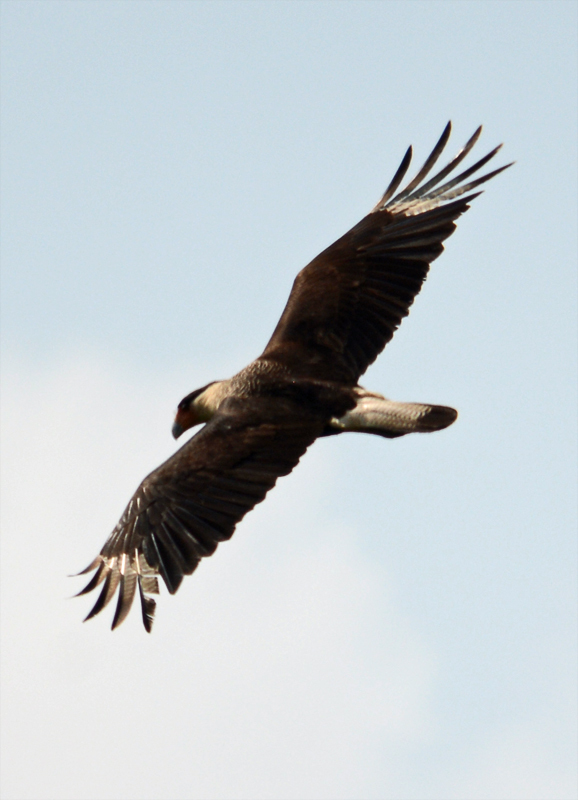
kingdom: Animalia
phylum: Chordata
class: Aves
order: Falconiformes
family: Falconidae
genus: Caracara
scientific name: Caracara plancus
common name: Southern caracara
